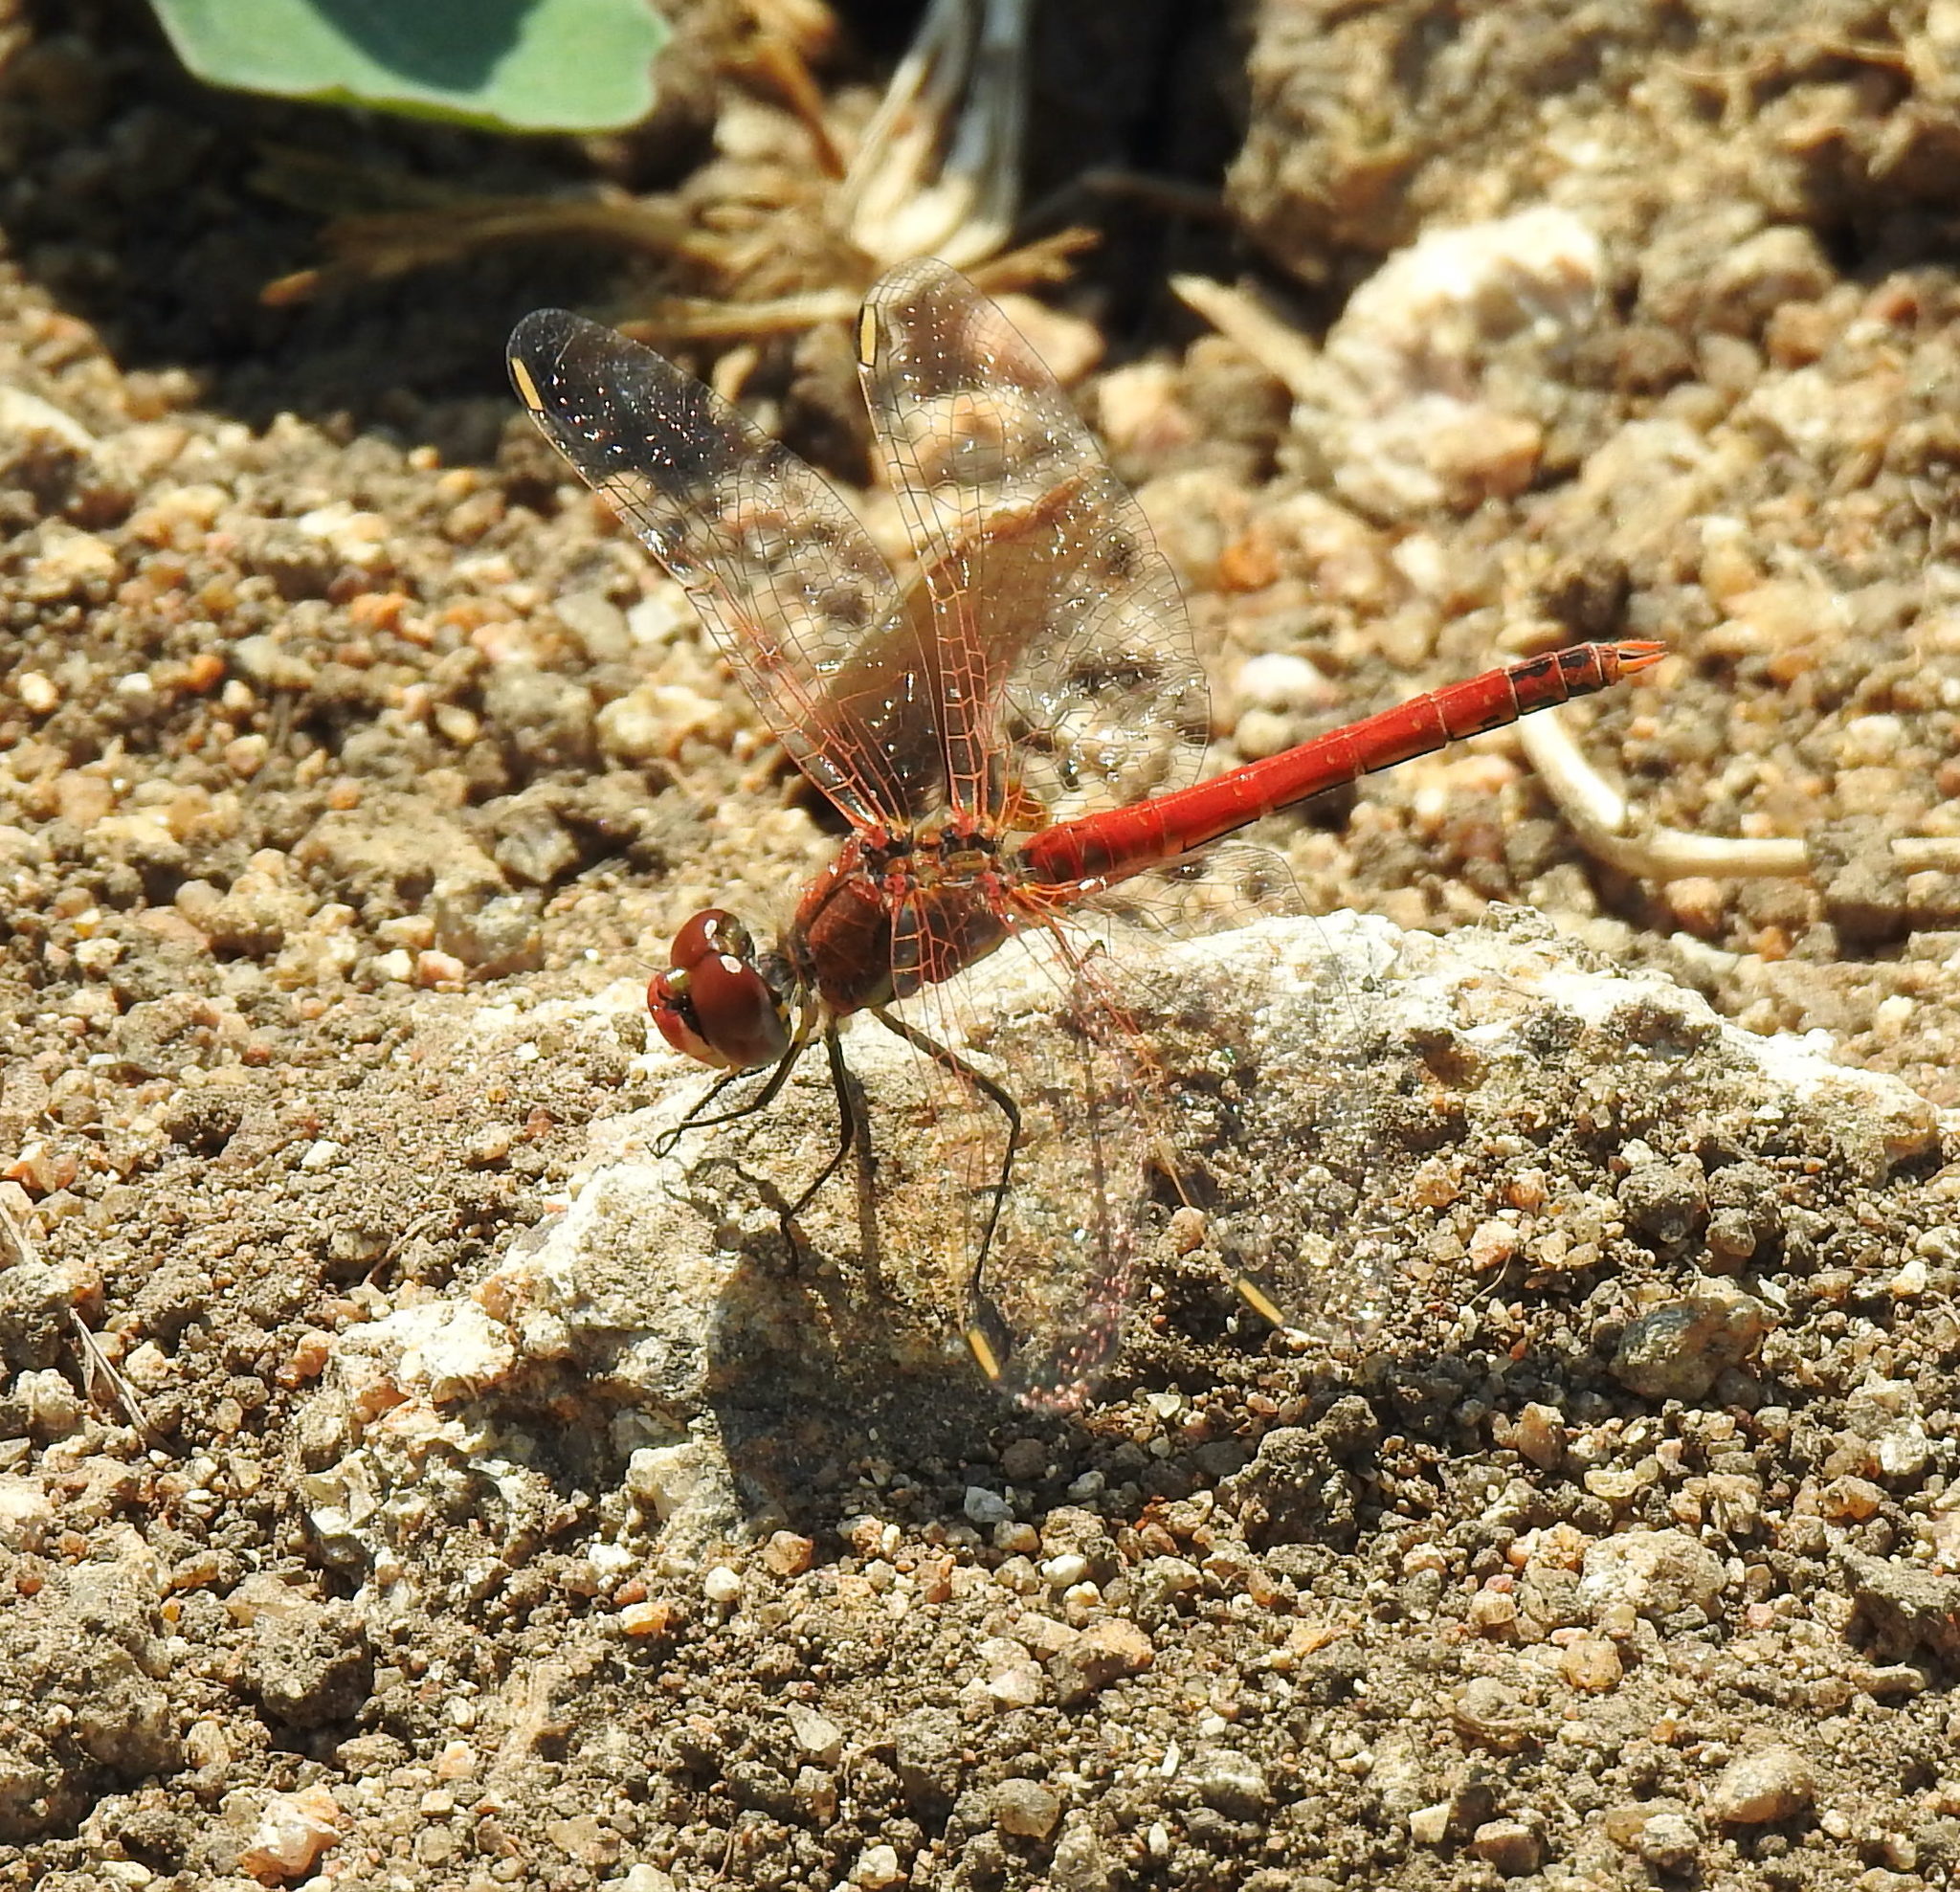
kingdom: Animalia
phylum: Arthropoda
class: Insecta
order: Odonata
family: Libellulidae
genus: Sympetrum
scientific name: Sympetrum fonscolombii
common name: Red-veined darter
